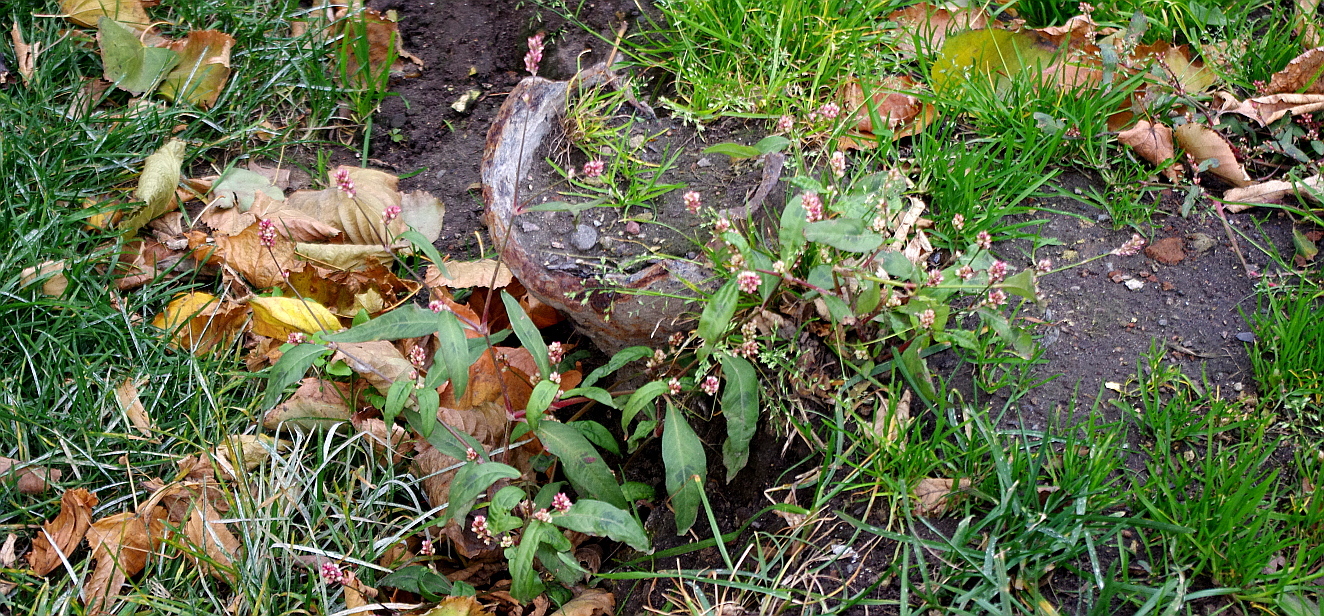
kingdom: Plantae
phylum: Tracheophyta
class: Magnoliopsida
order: Caryophyllales
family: Polygonaceae
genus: Persicaria
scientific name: Persicaria maculosa
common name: Redshank
